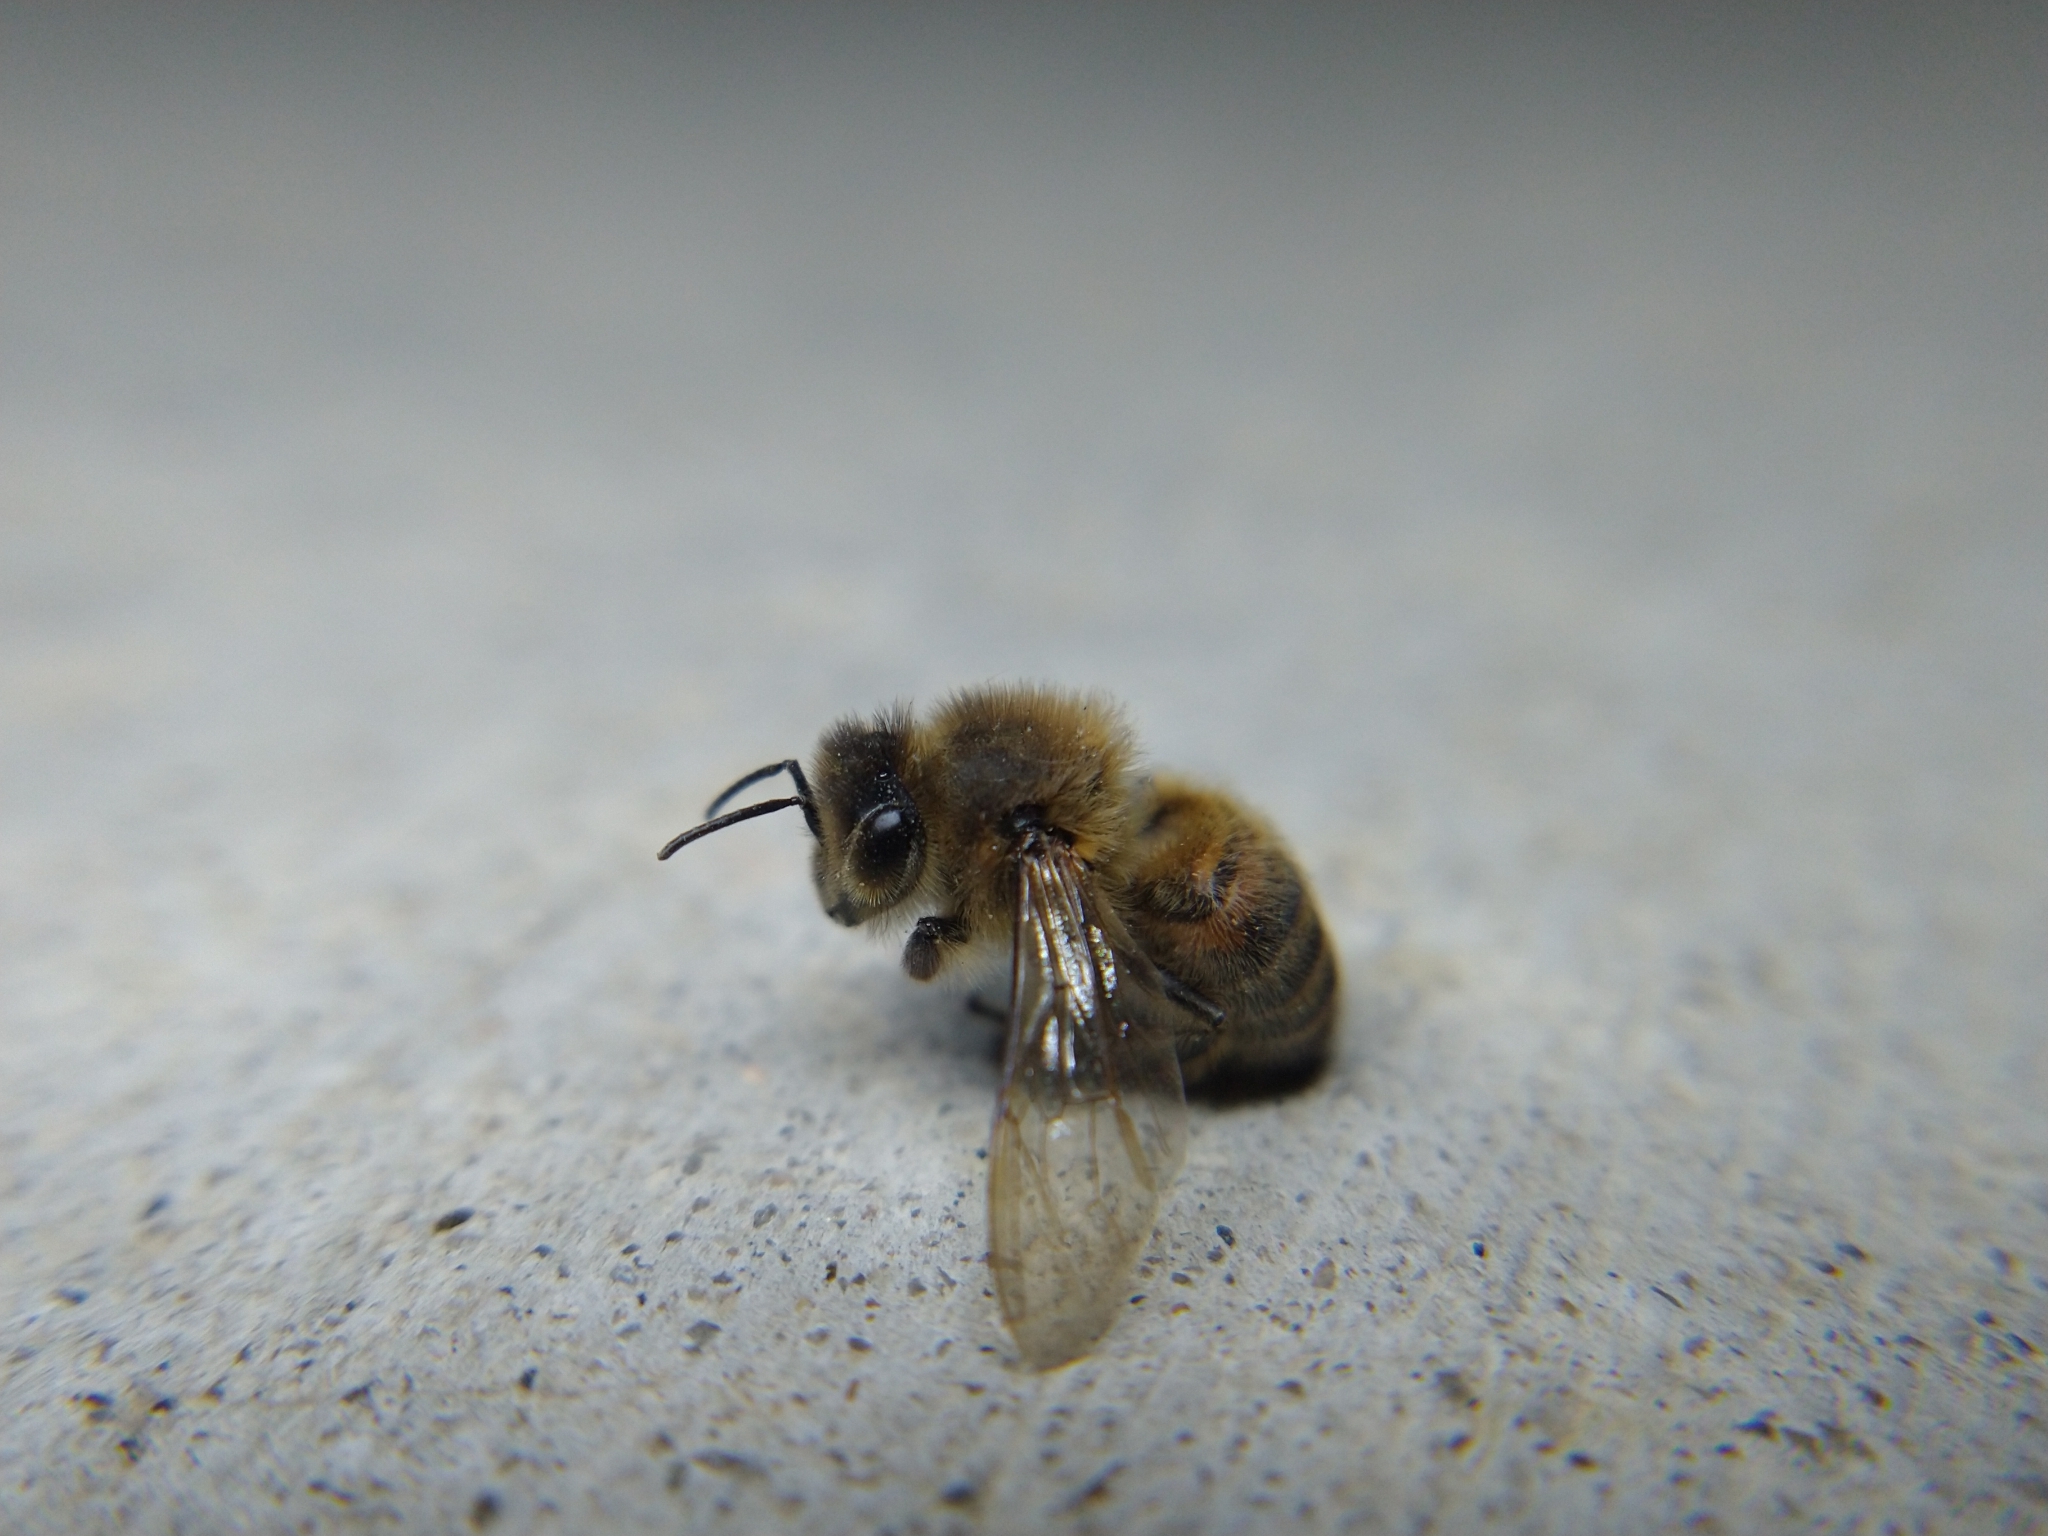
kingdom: Animalia
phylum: Arthropoda
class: Insecta
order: Hymenoptera
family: Apidae
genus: Apis
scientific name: Apis mellifera
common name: Honey bee
